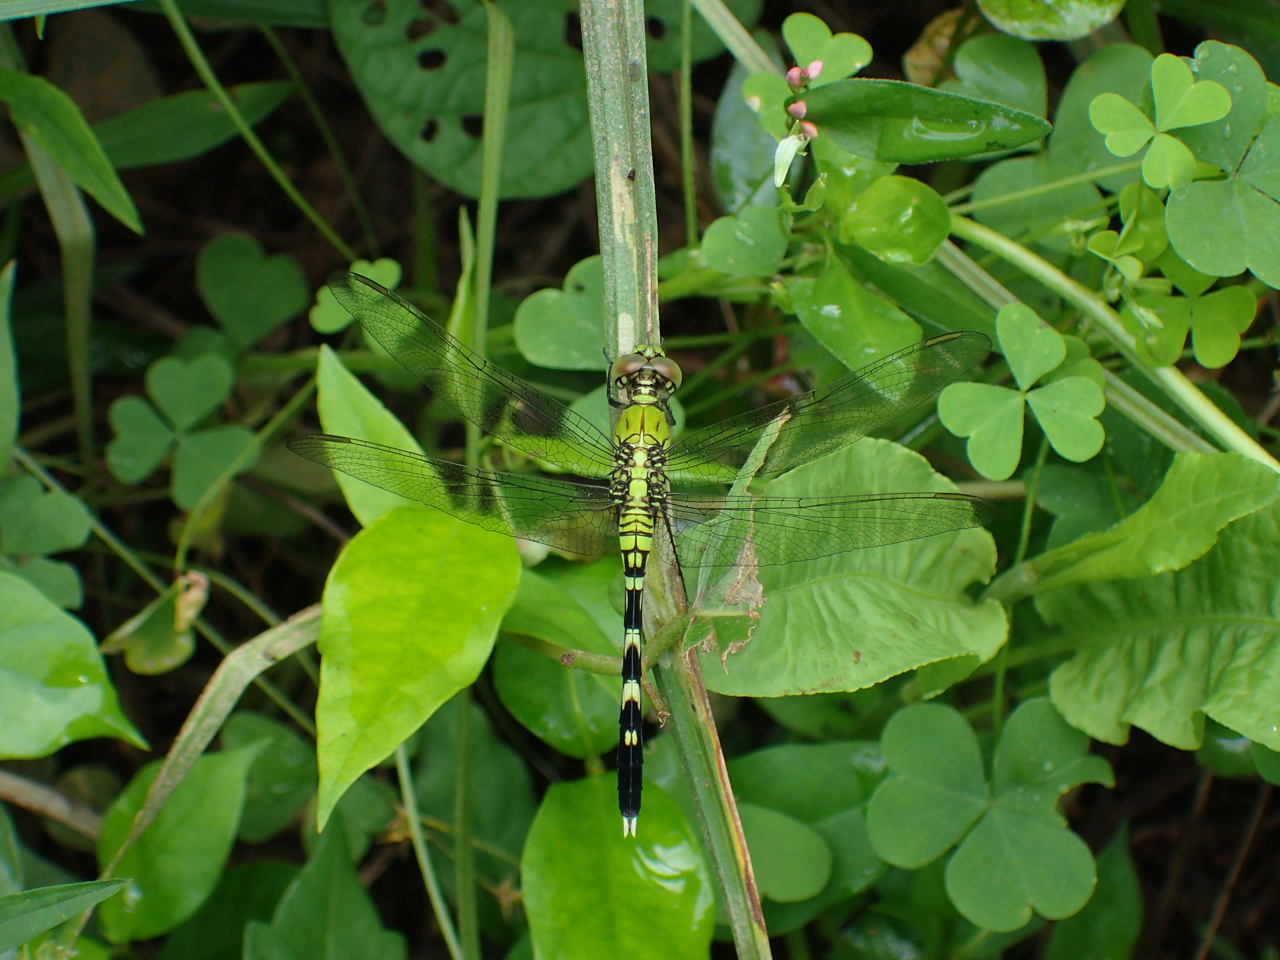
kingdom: Animalia
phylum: Arthropoda
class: Insecta
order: Odonata
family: Libellulidae
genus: Erythemis
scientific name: Erythemis simplicicollis
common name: Eastern pondhawk
